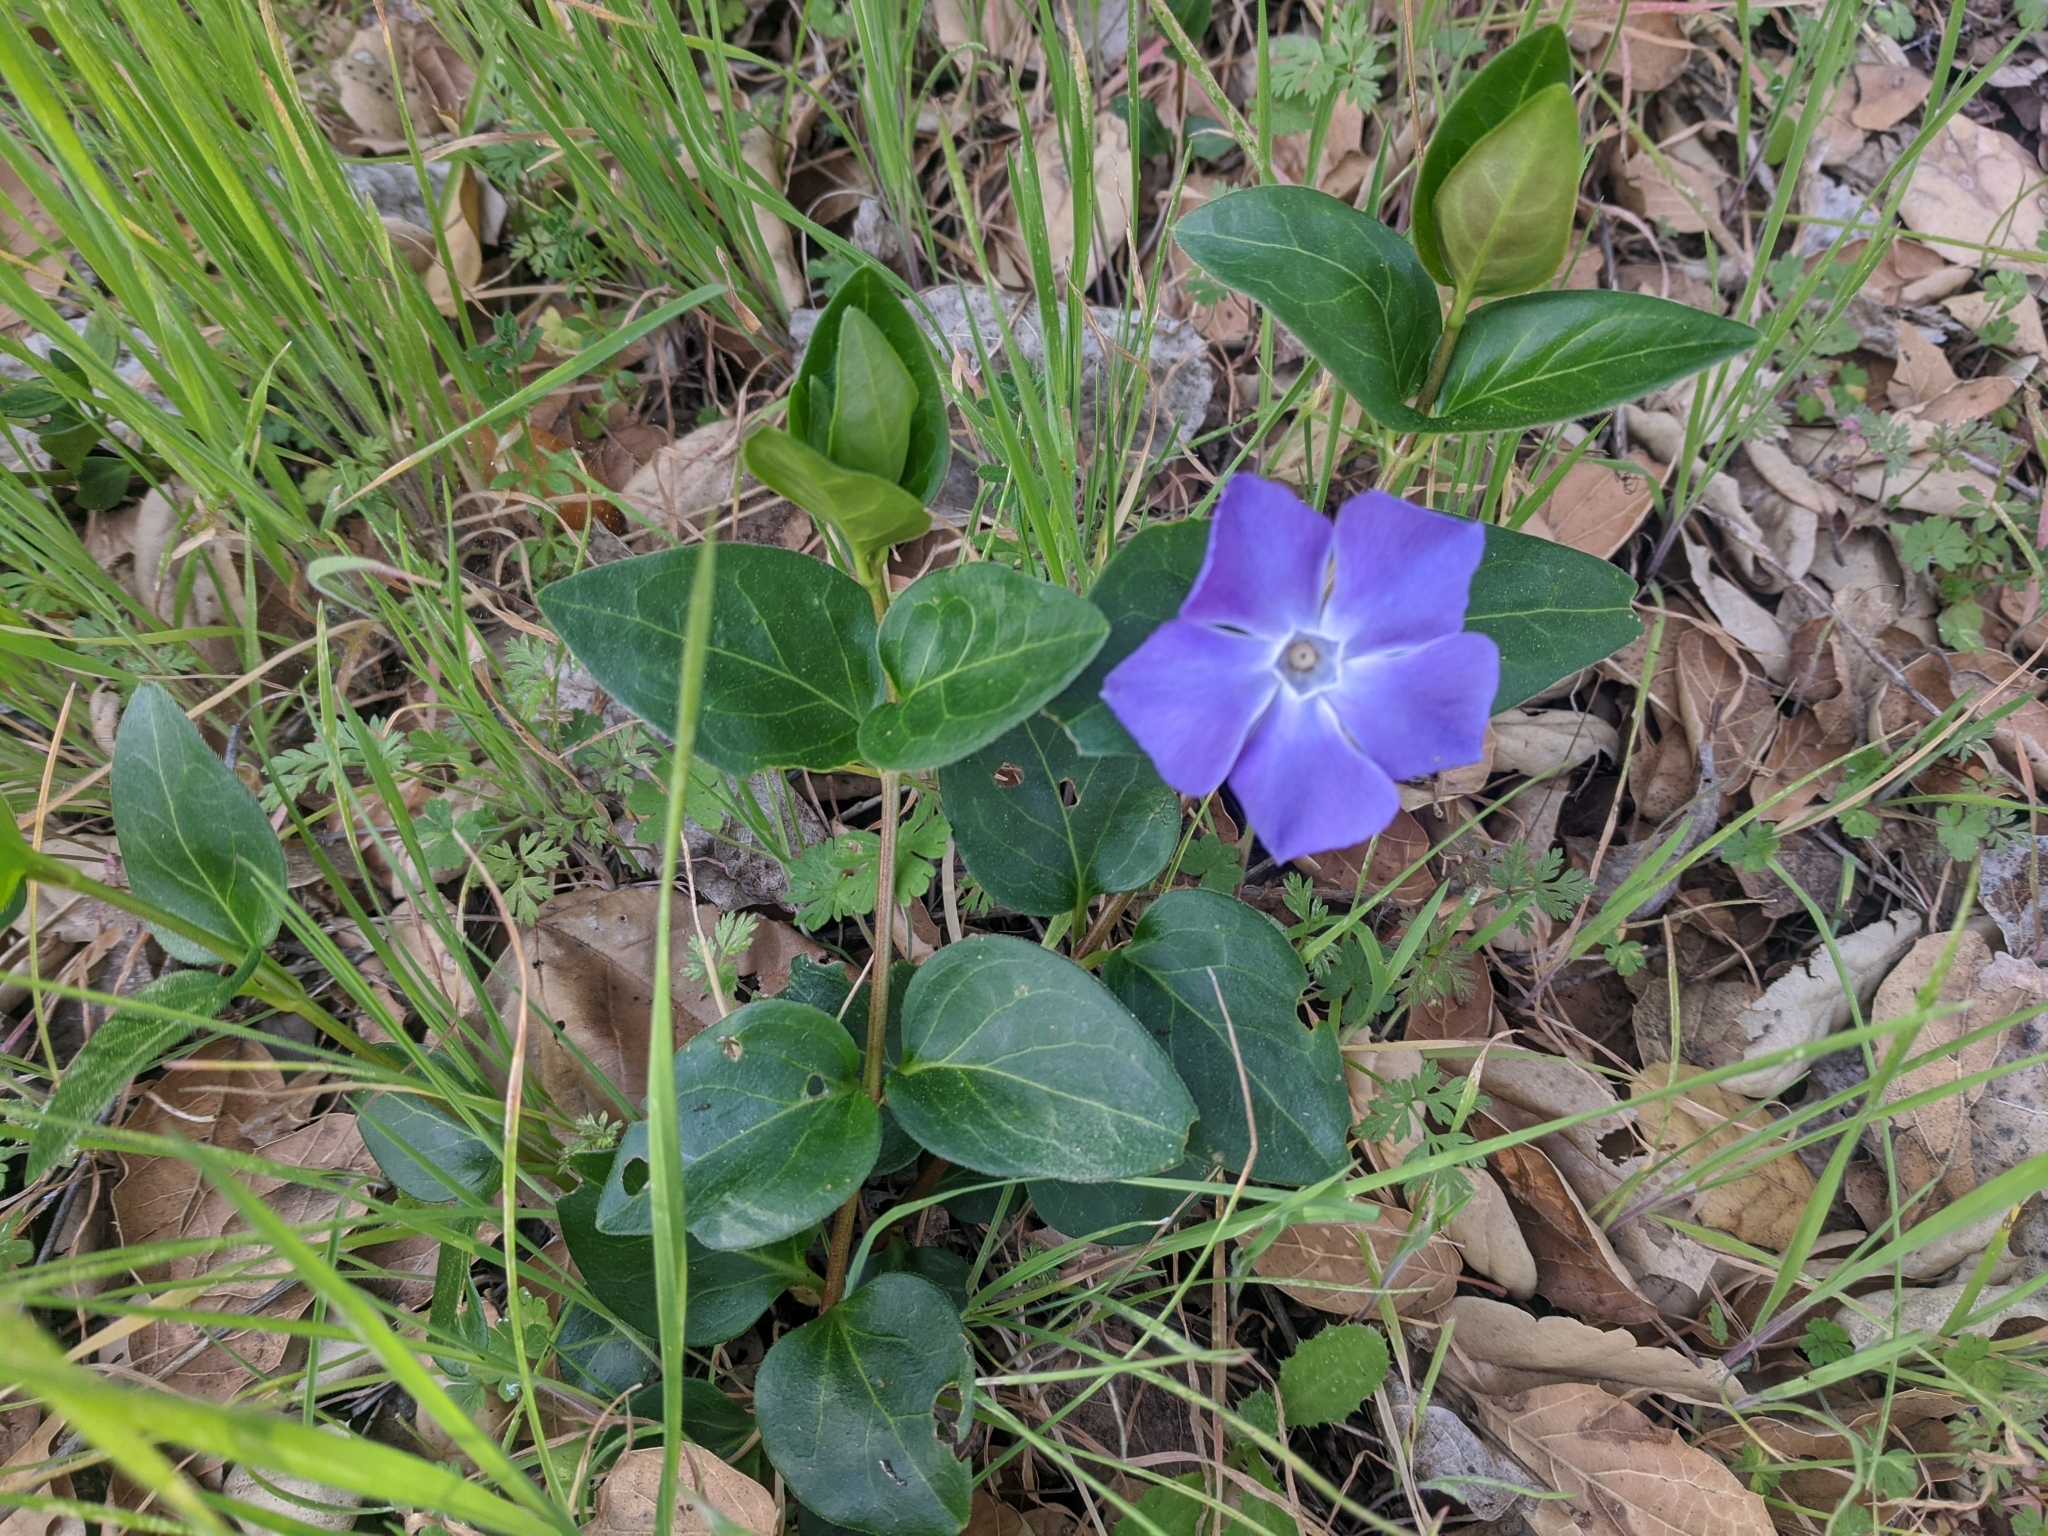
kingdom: Plantae
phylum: Tracheophyta
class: Magnoliopsida
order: Gentianales
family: Apocynaceae
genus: Vinca
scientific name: Vinca major
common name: Greater periwinkle
